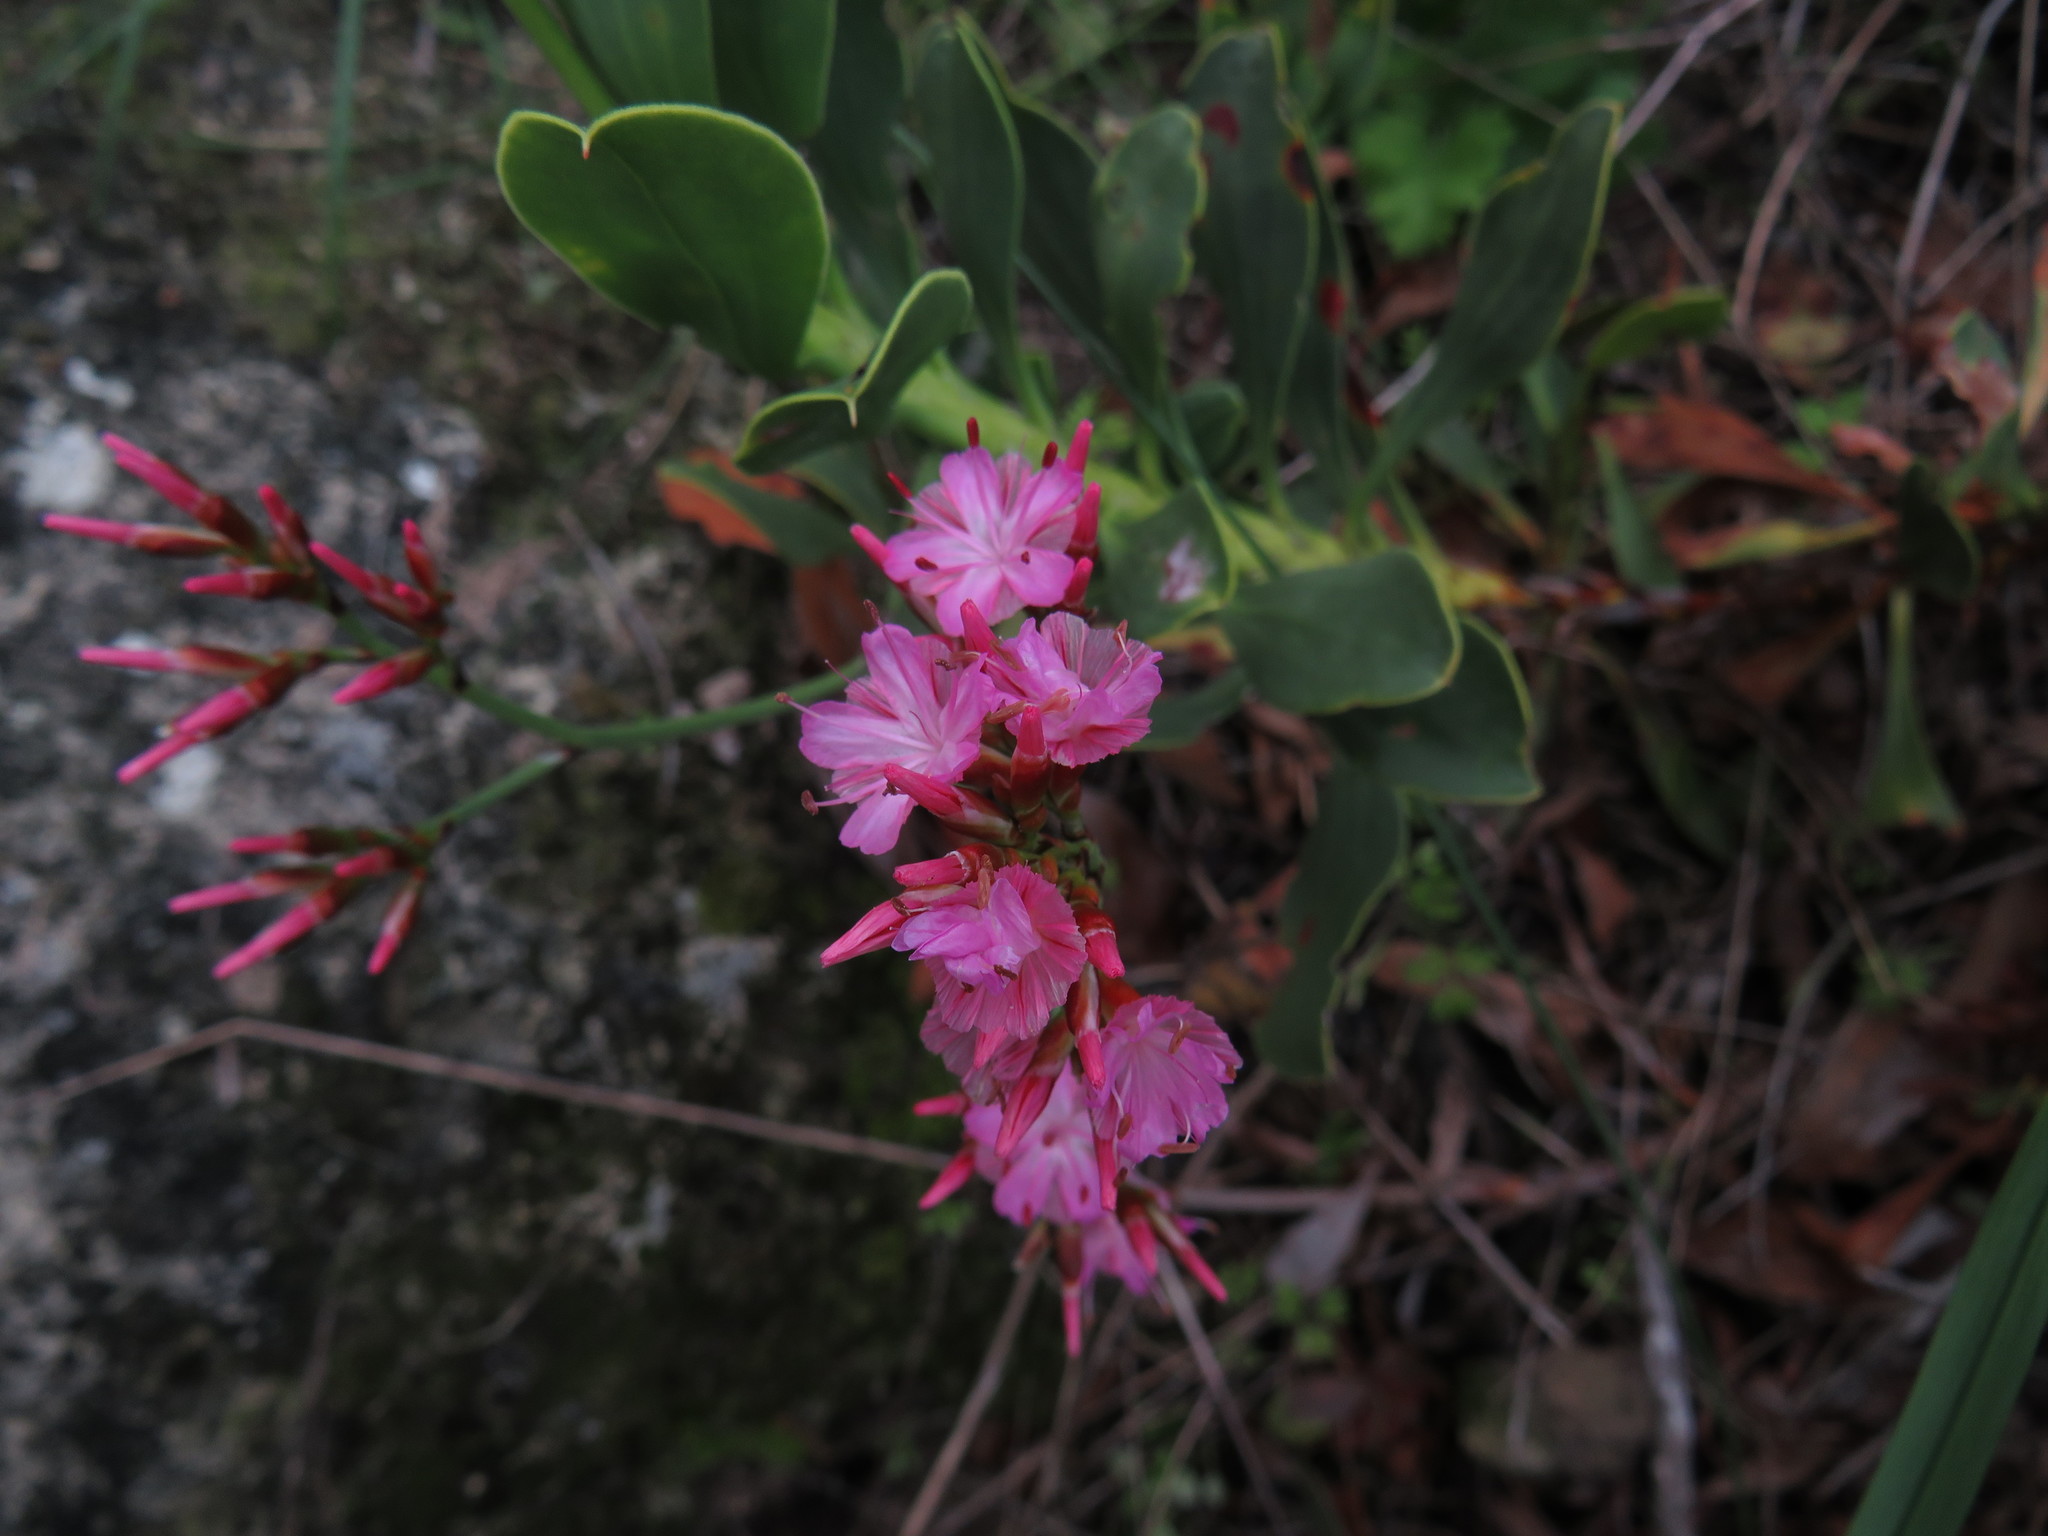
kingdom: Plantae
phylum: Tracheophyta
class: Magnoliopsida
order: Caryophyllales
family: Plumbaginaceae
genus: Limonium
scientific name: Limonium peregrinum
